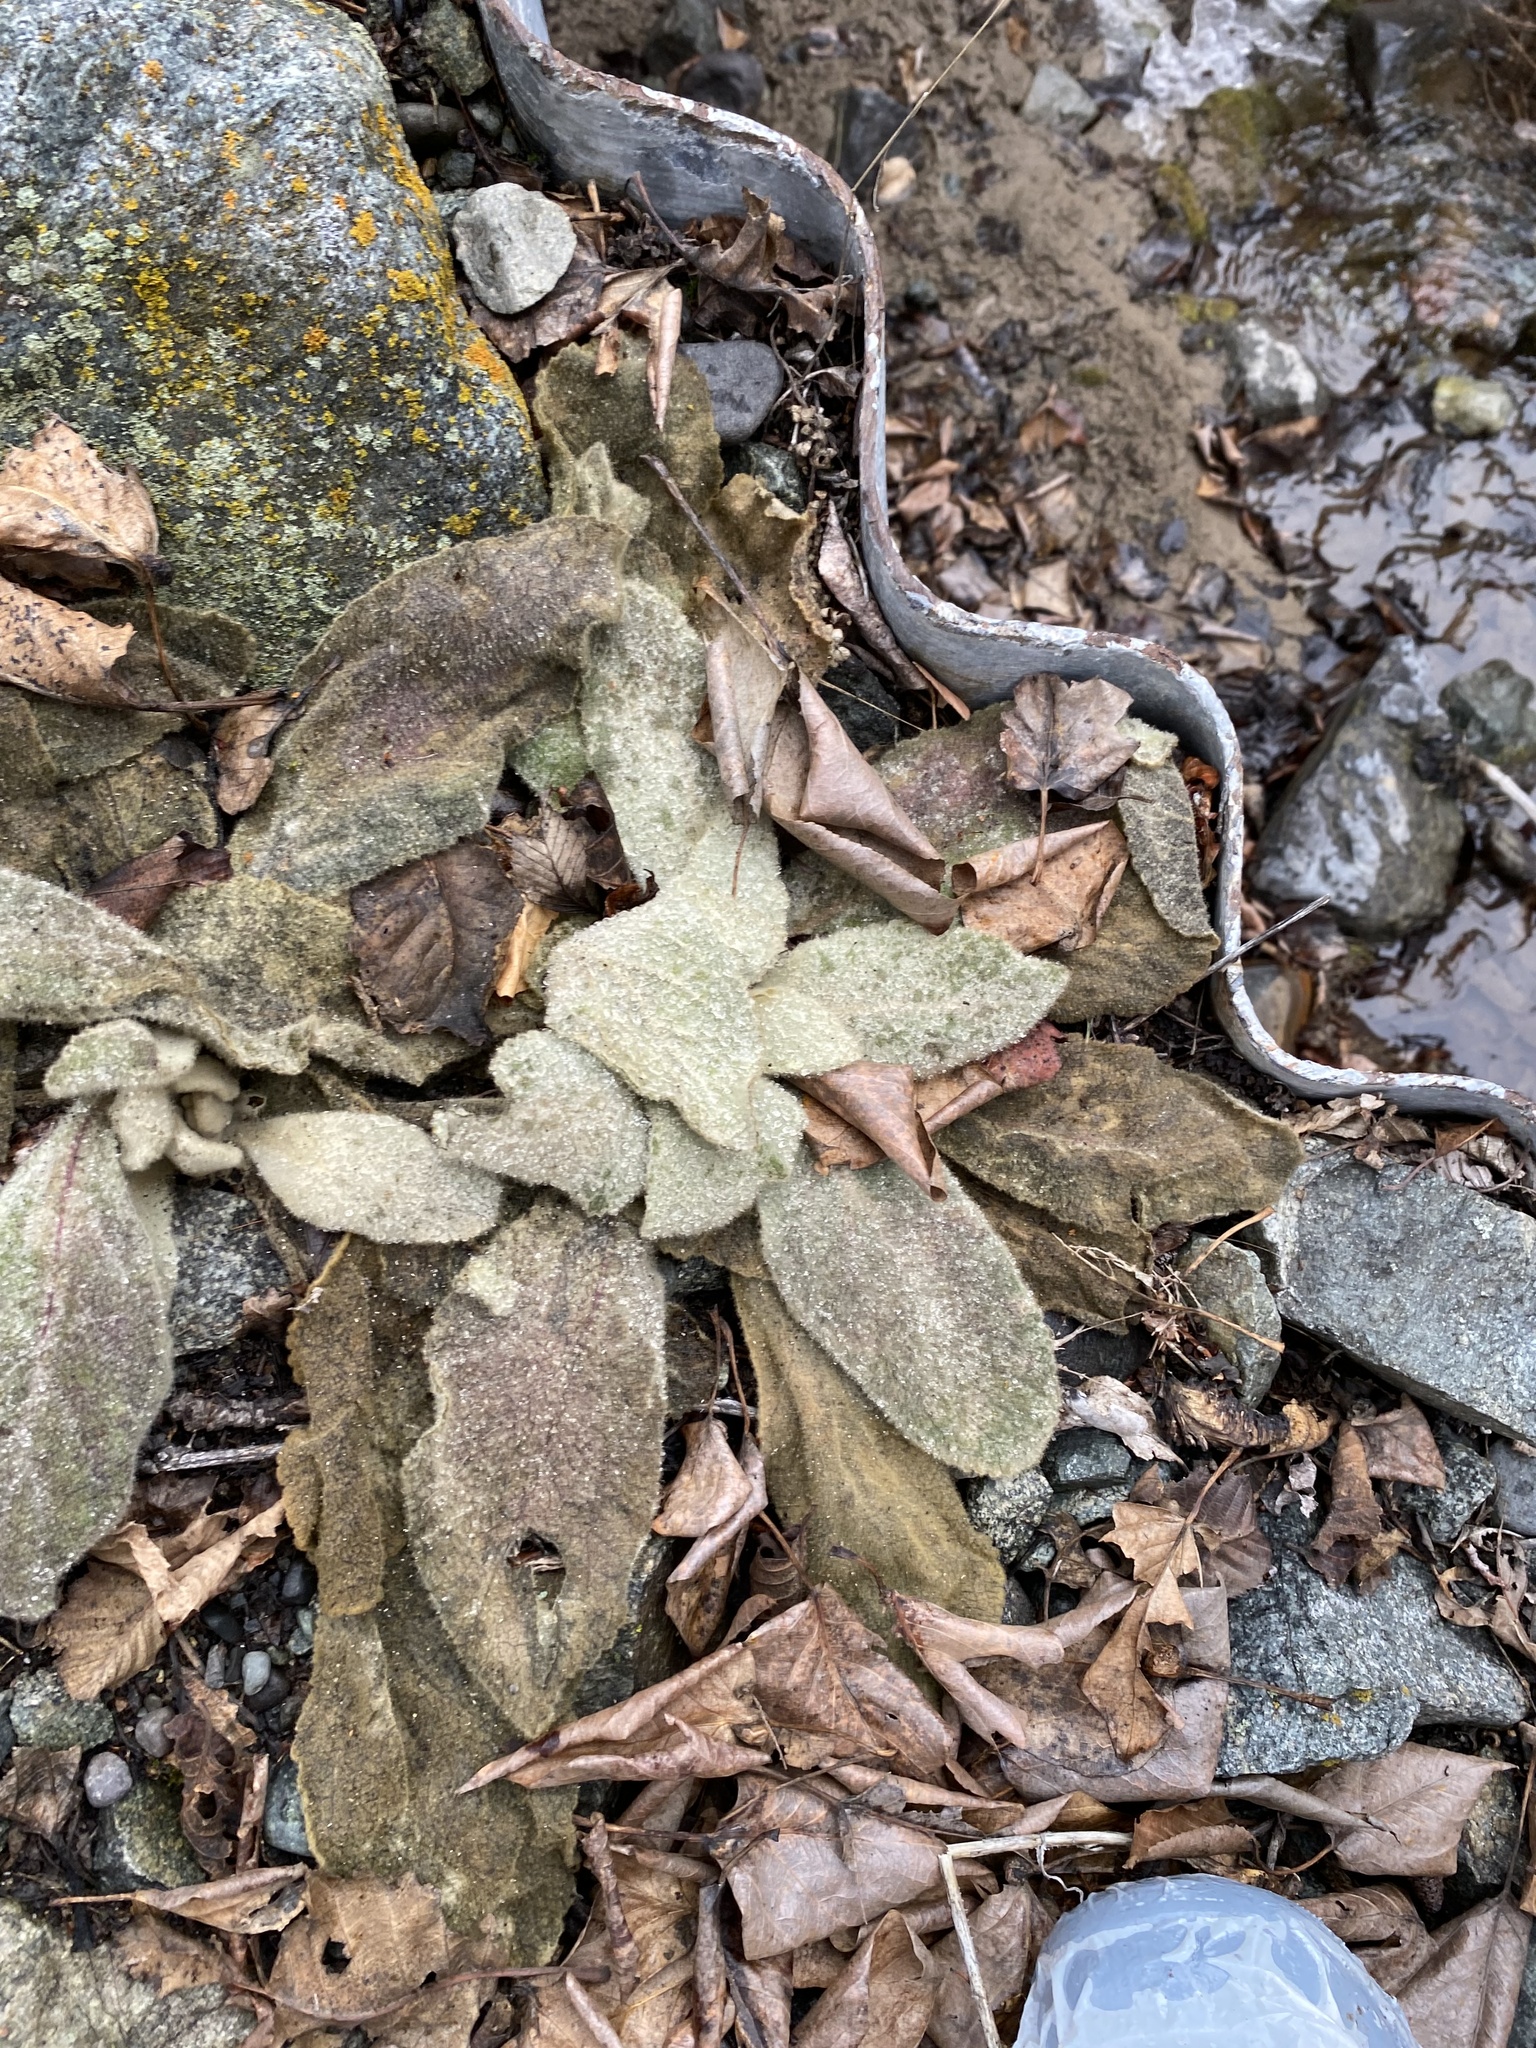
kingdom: Plantae
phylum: Tracheophyta
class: Magnoliopsida
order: Lamiales
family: Scrophulariaceae
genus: Verbascum
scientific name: Verbascum thapsus
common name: Common mullein
